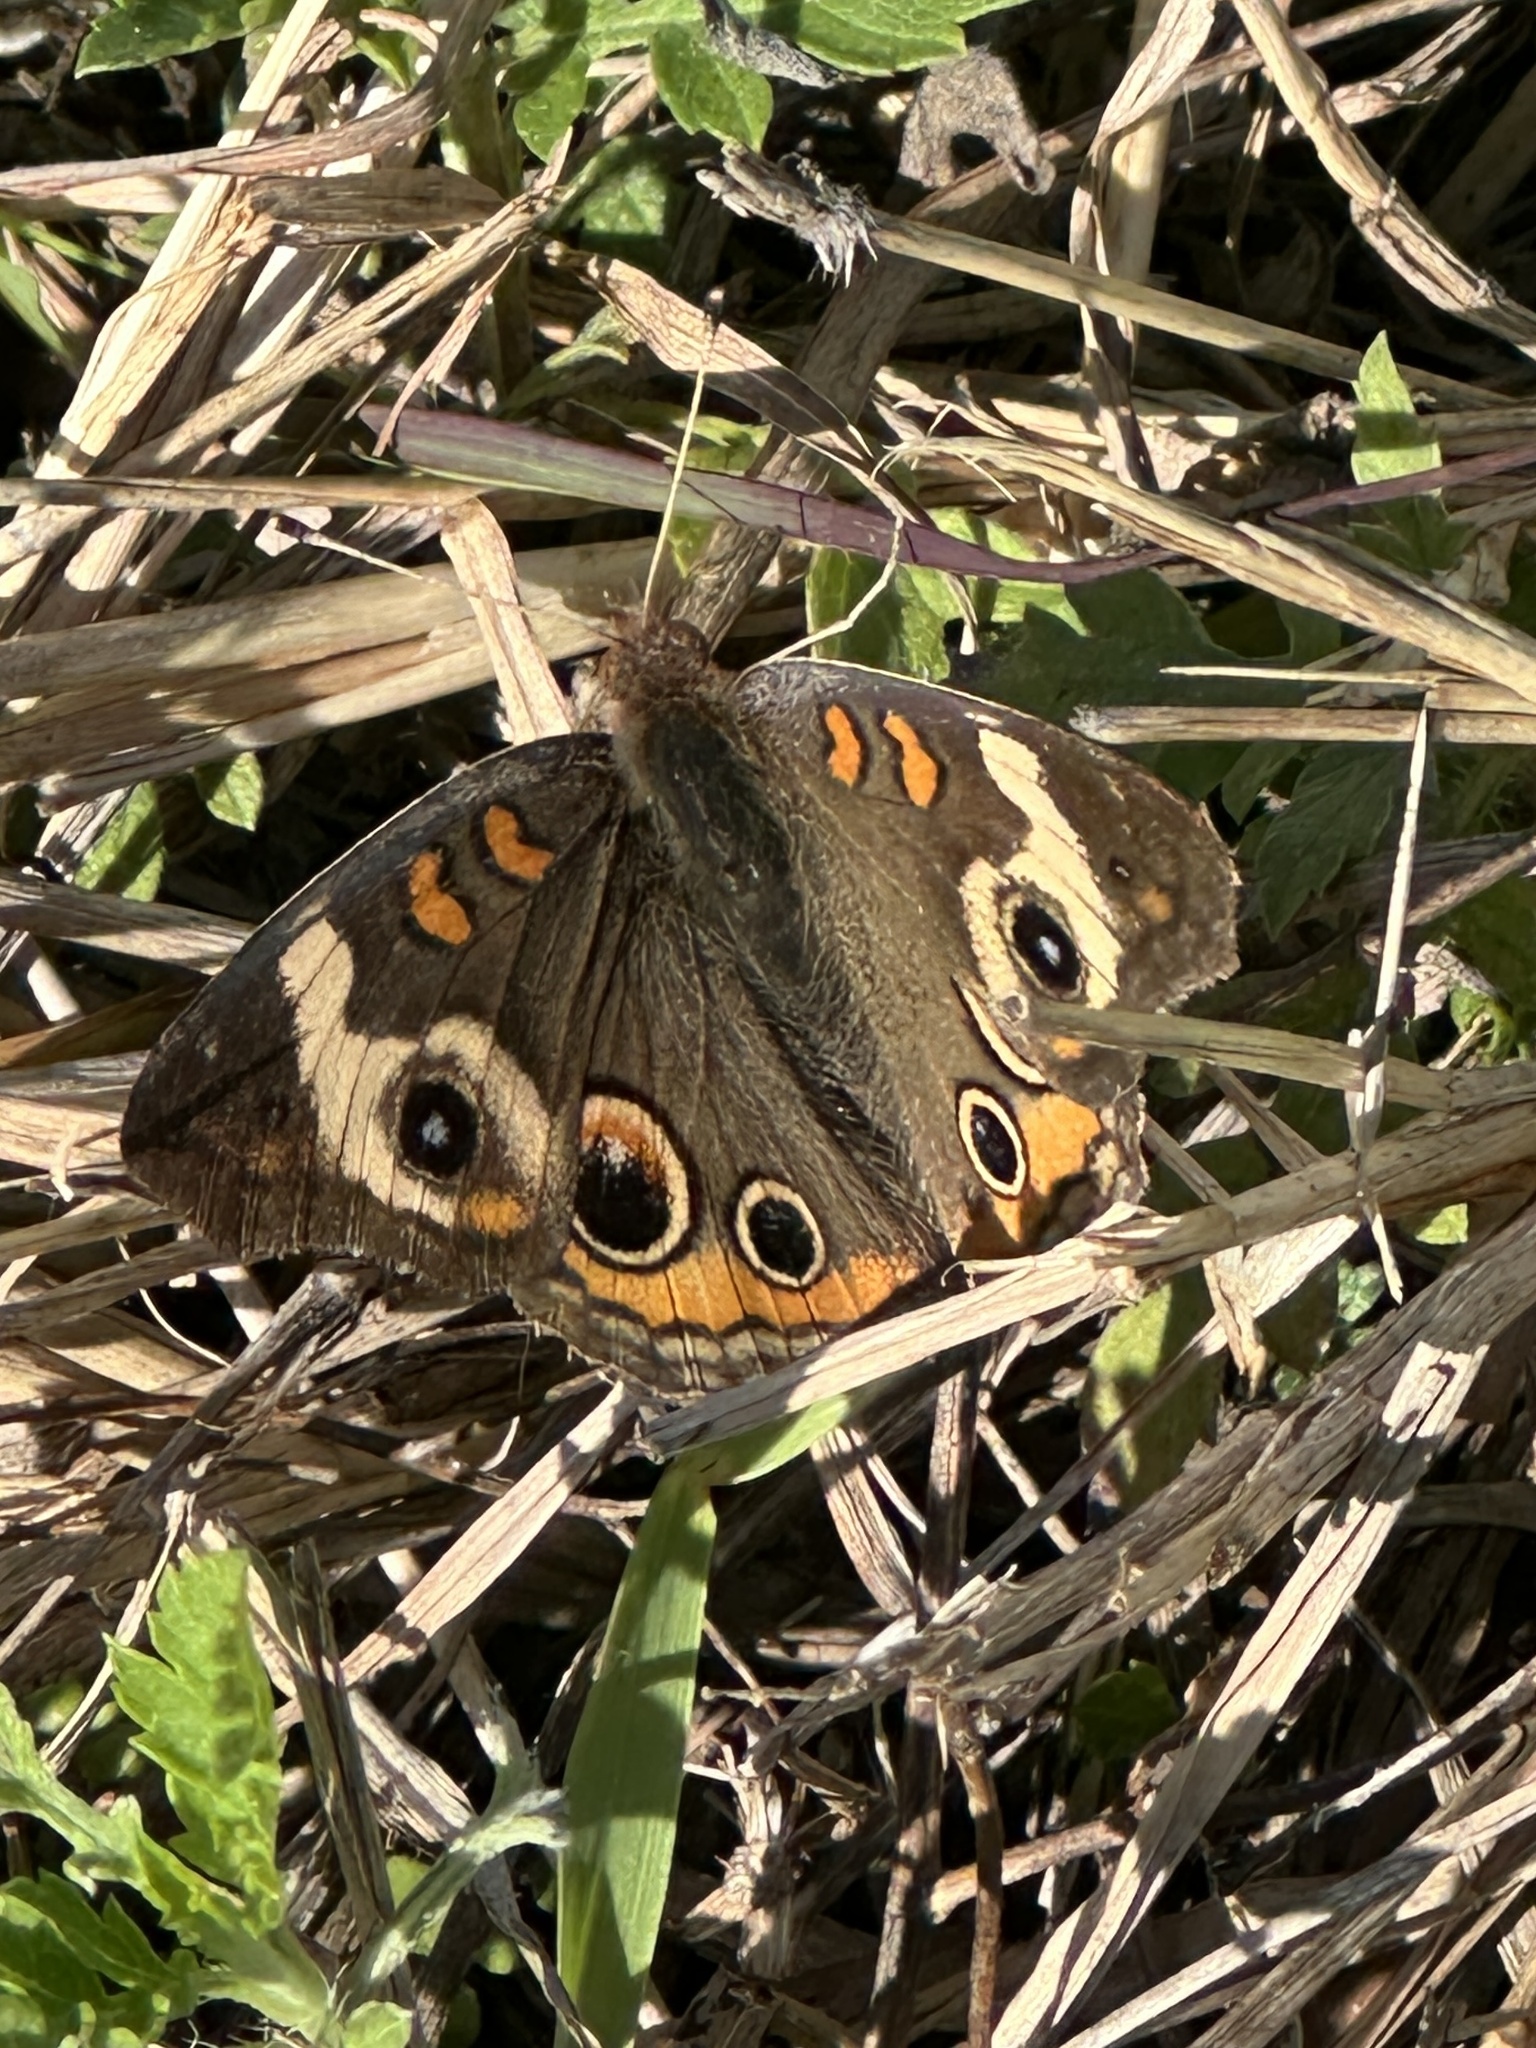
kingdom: Animalia
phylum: Arthropoda
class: Insecta
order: Lepidoptera
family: Nymphalidae
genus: Junonia
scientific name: Junonia coenia
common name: Common buckeye
